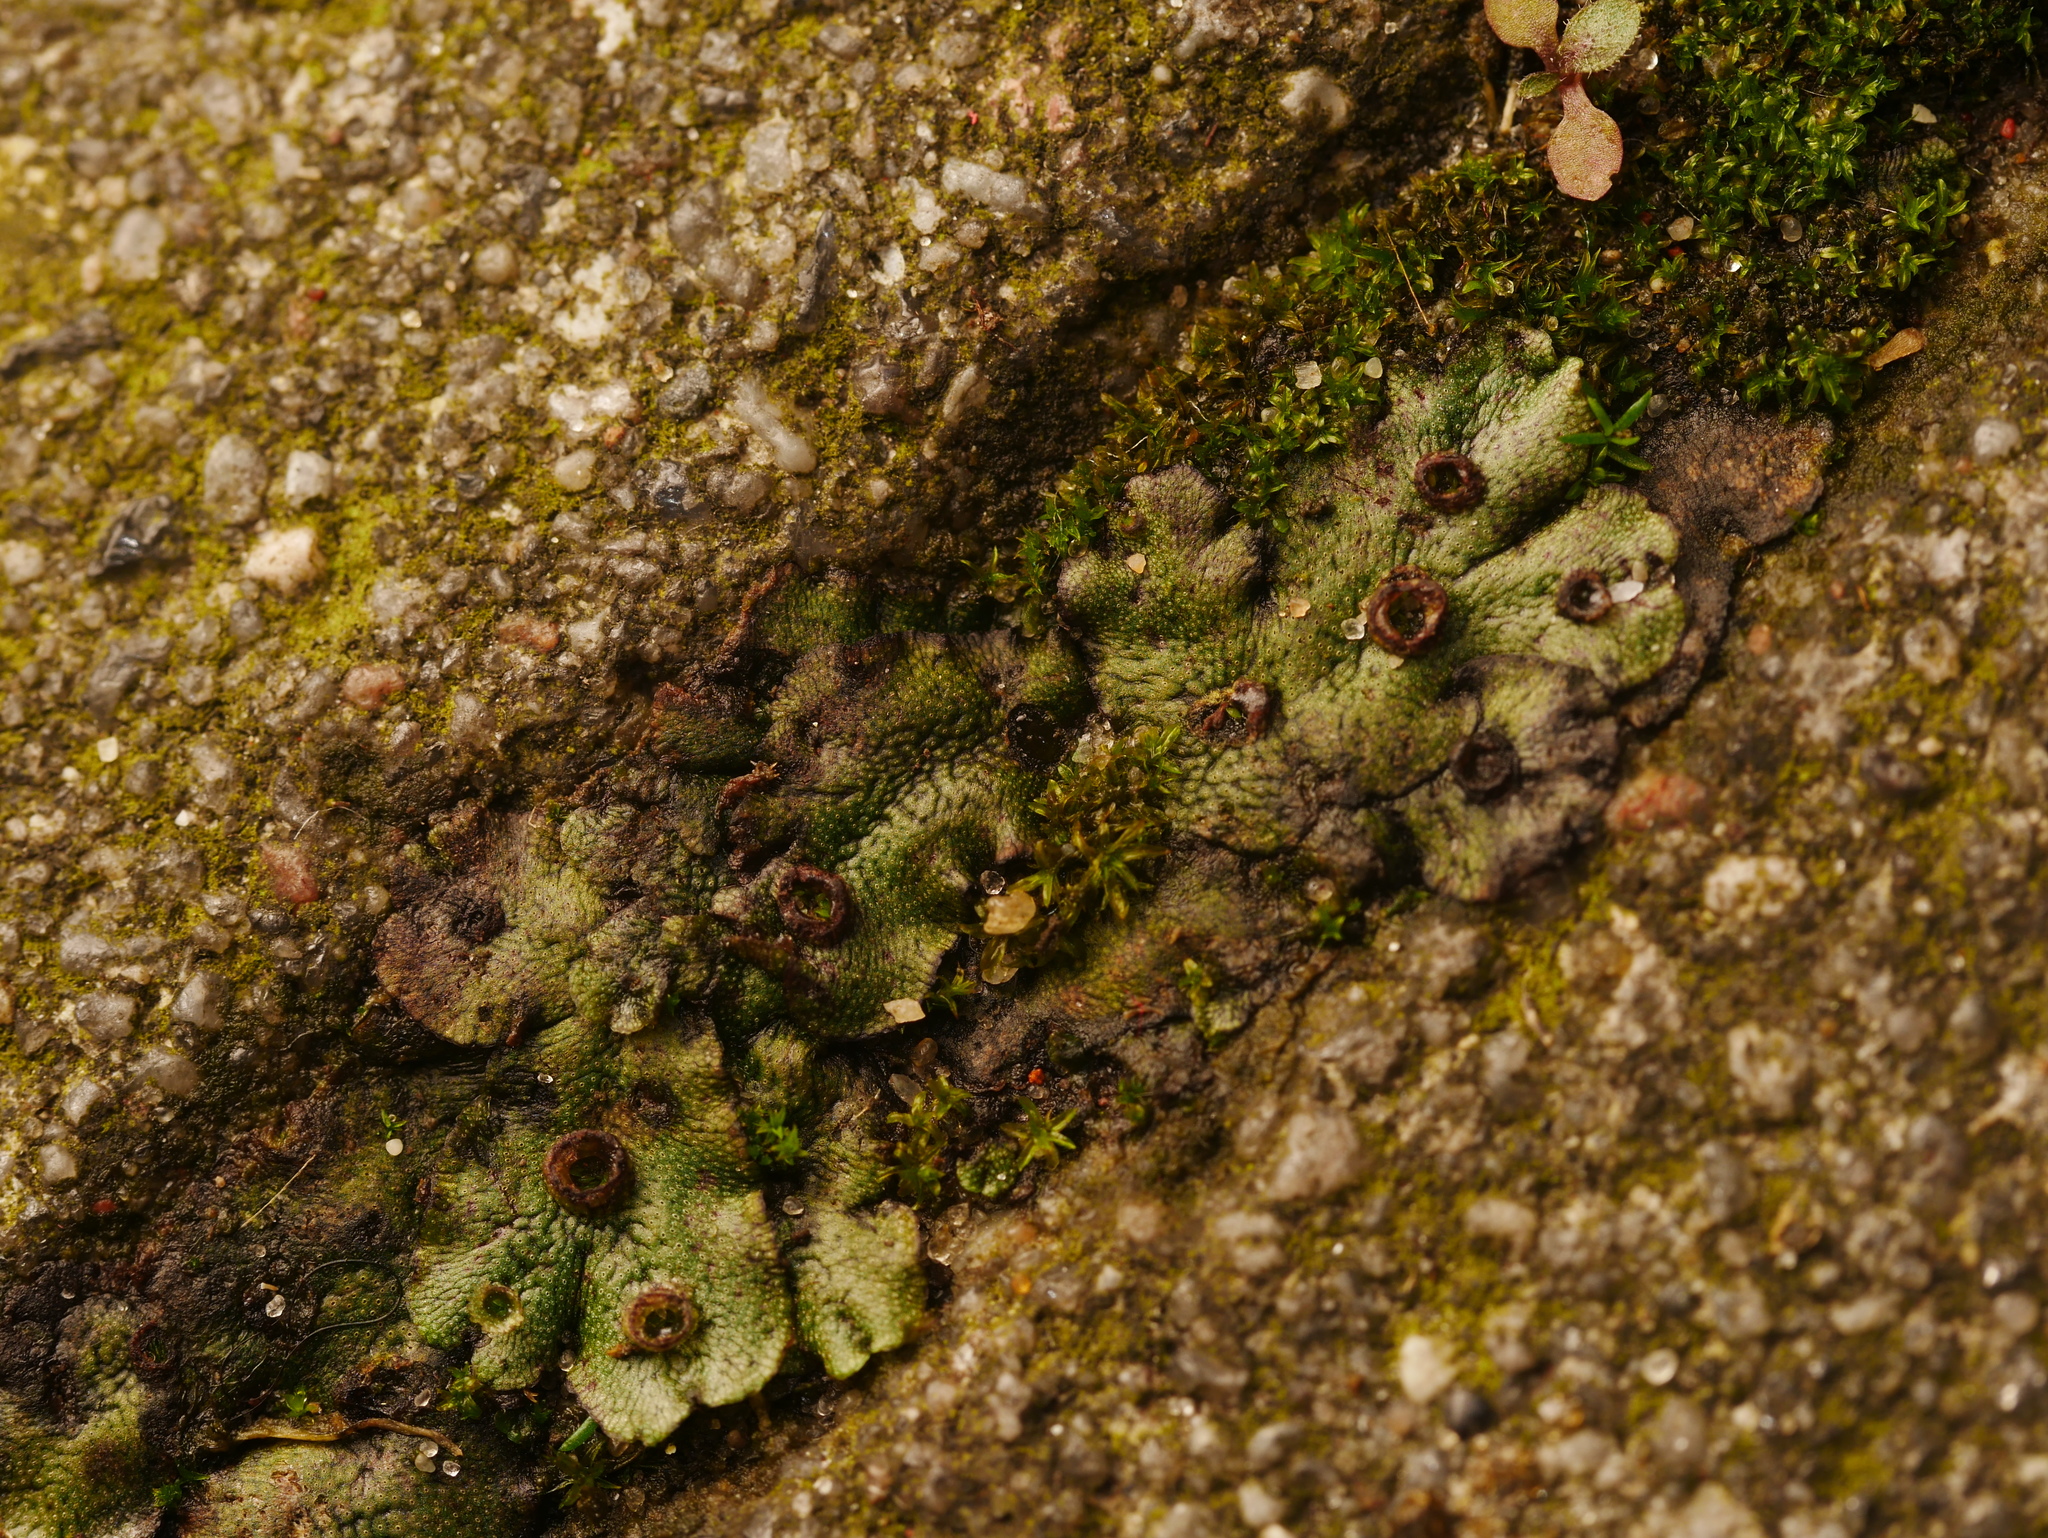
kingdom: Plantae
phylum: Marchantiophyta
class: Marchantiopsida
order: Marchantiales
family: Marchantiaceae
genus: Marchantia
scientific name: Marchantia polymorpha
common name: Common liverwort
